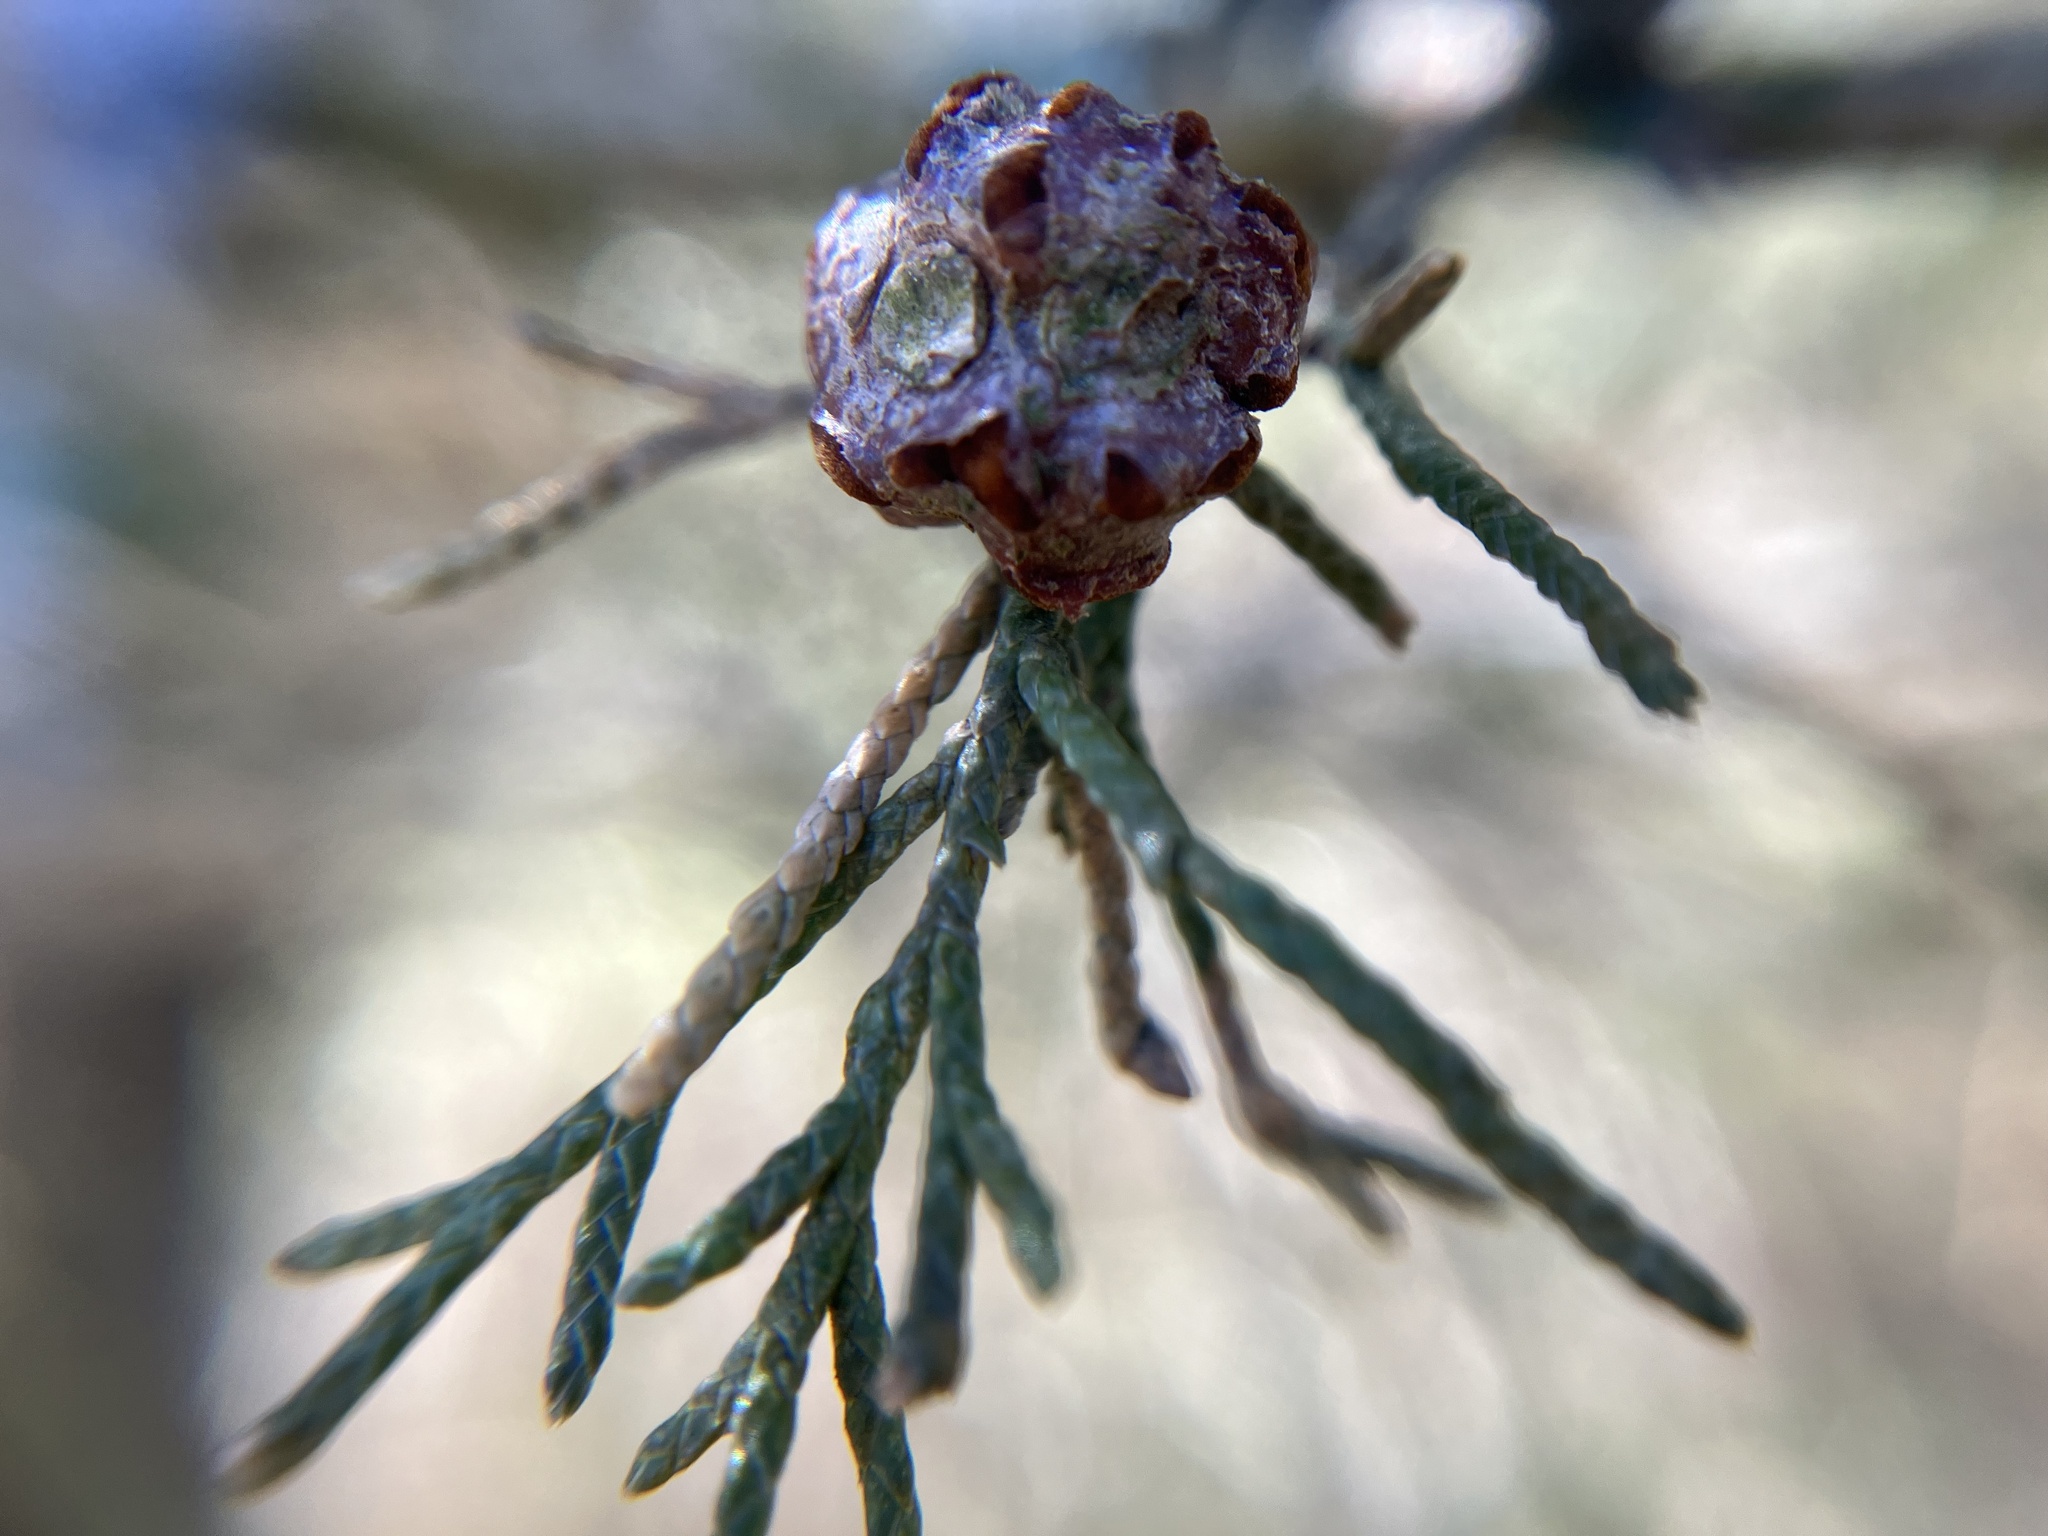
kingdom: Fungi
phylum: Basidiomycota
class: Pucciniomycetes
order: Pucciniales
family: Gymnosporangiaceae
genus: Gymnosporangium
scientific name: Gymnosporangium juniperi-virginianae
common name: Juniper-apple rust
